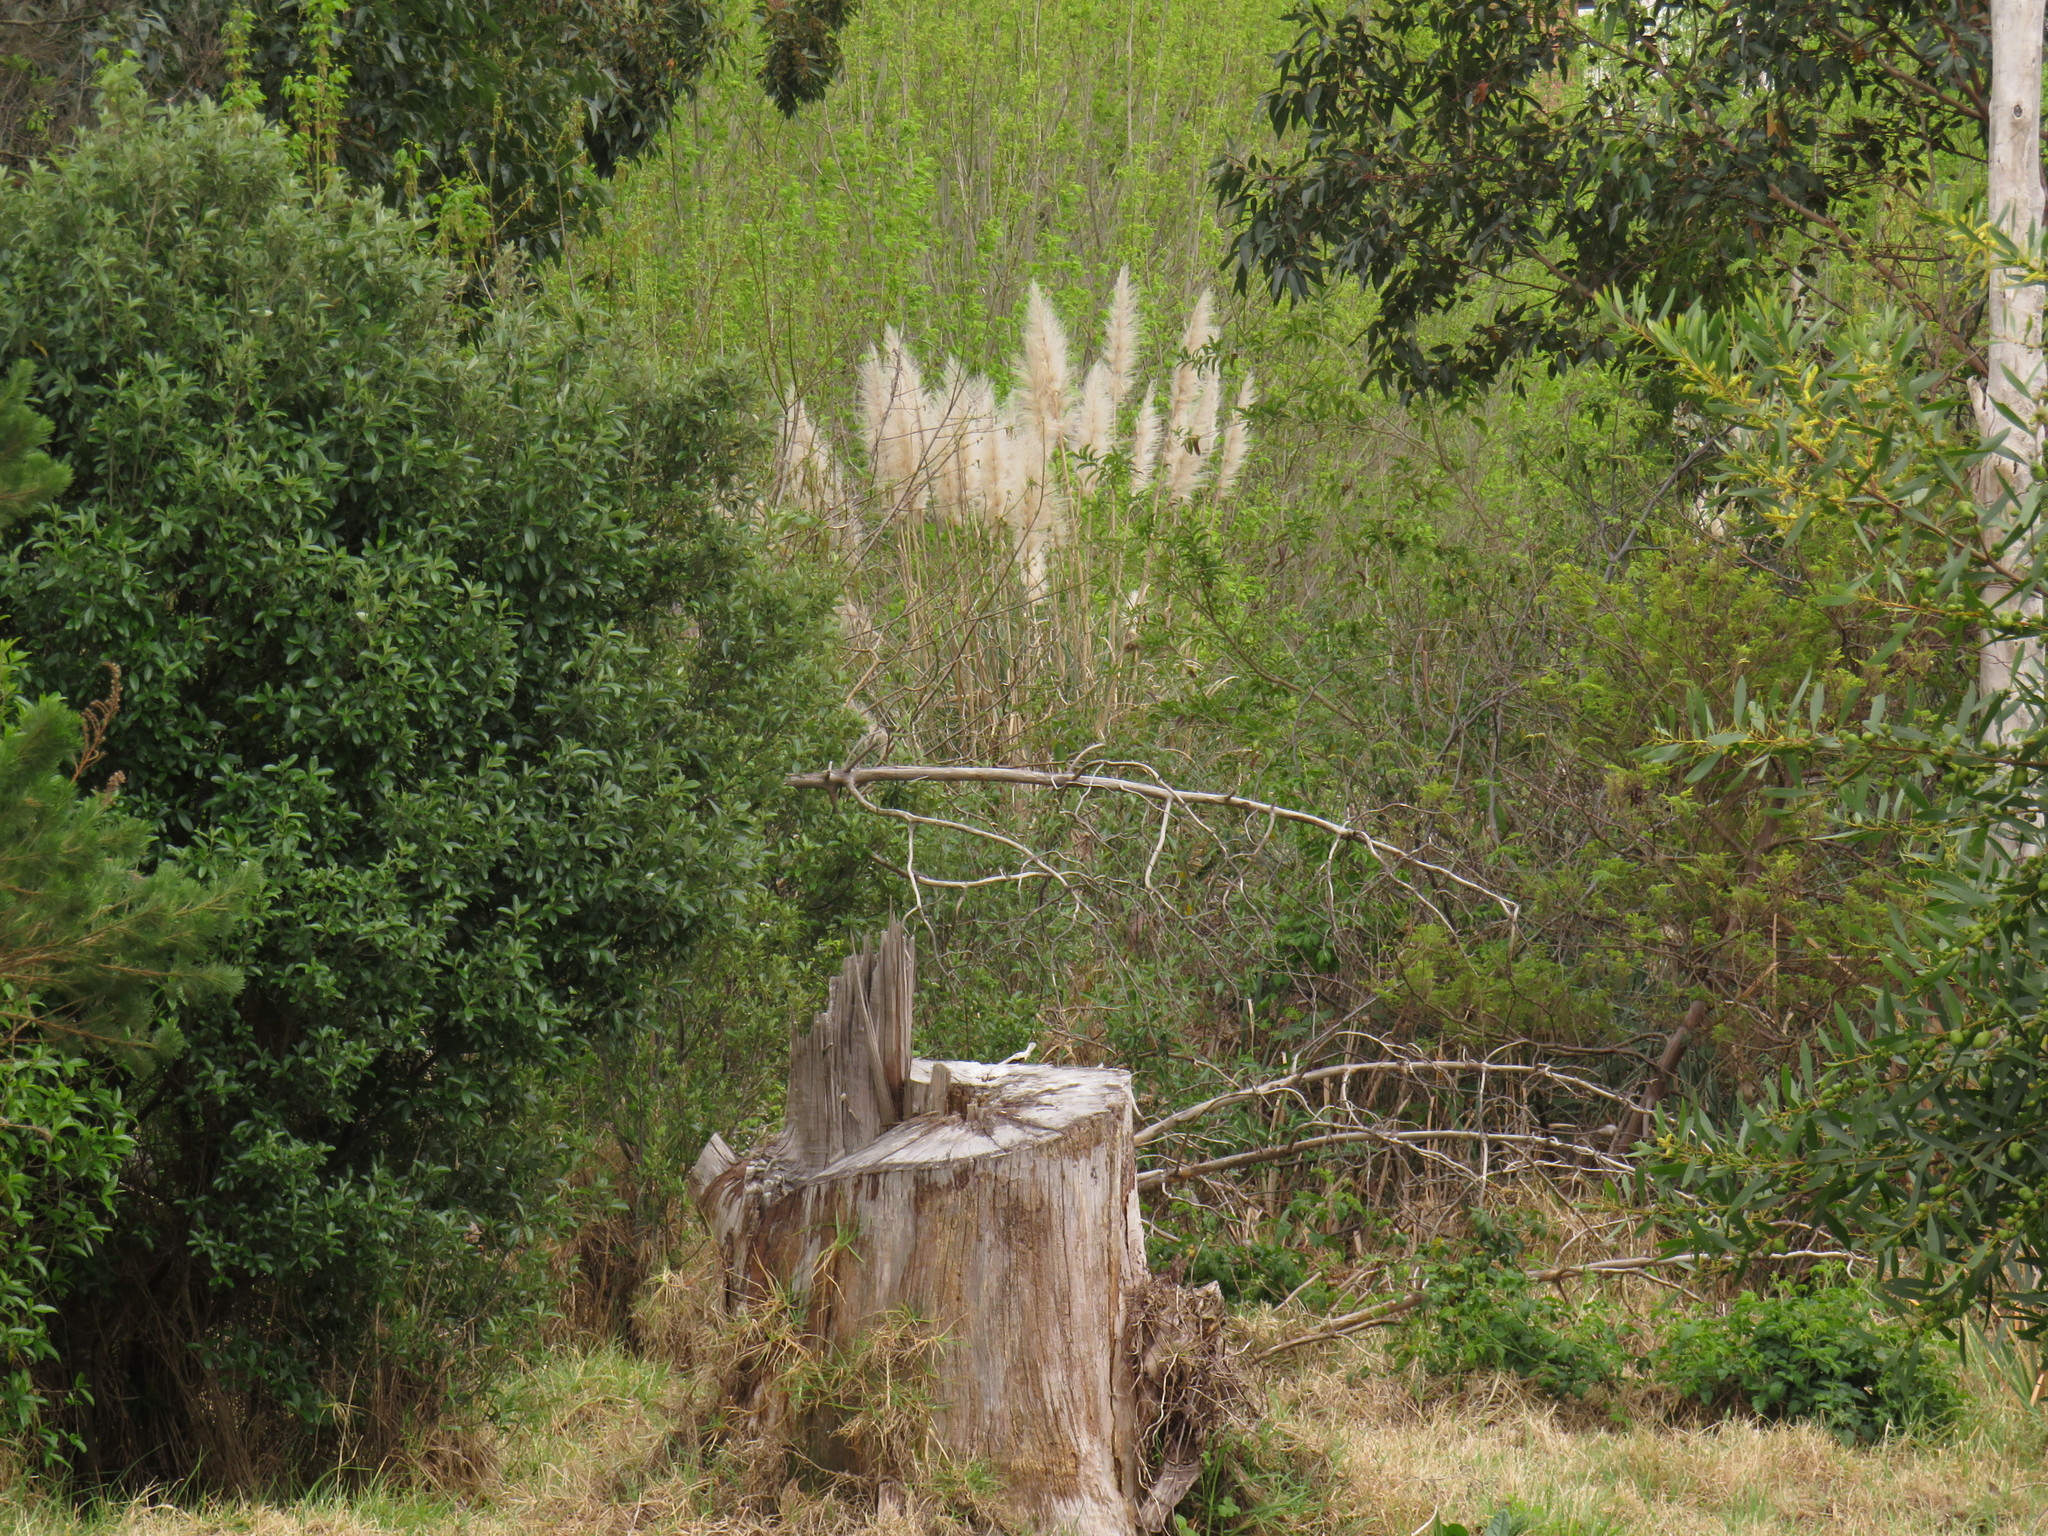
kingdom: Plantae
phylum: Tracheophyta
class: Liliopsida
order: Poales
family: Poaceae
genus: Cortaderia
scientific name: Cortaderia selloana
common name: Uruguayan pampas grass
